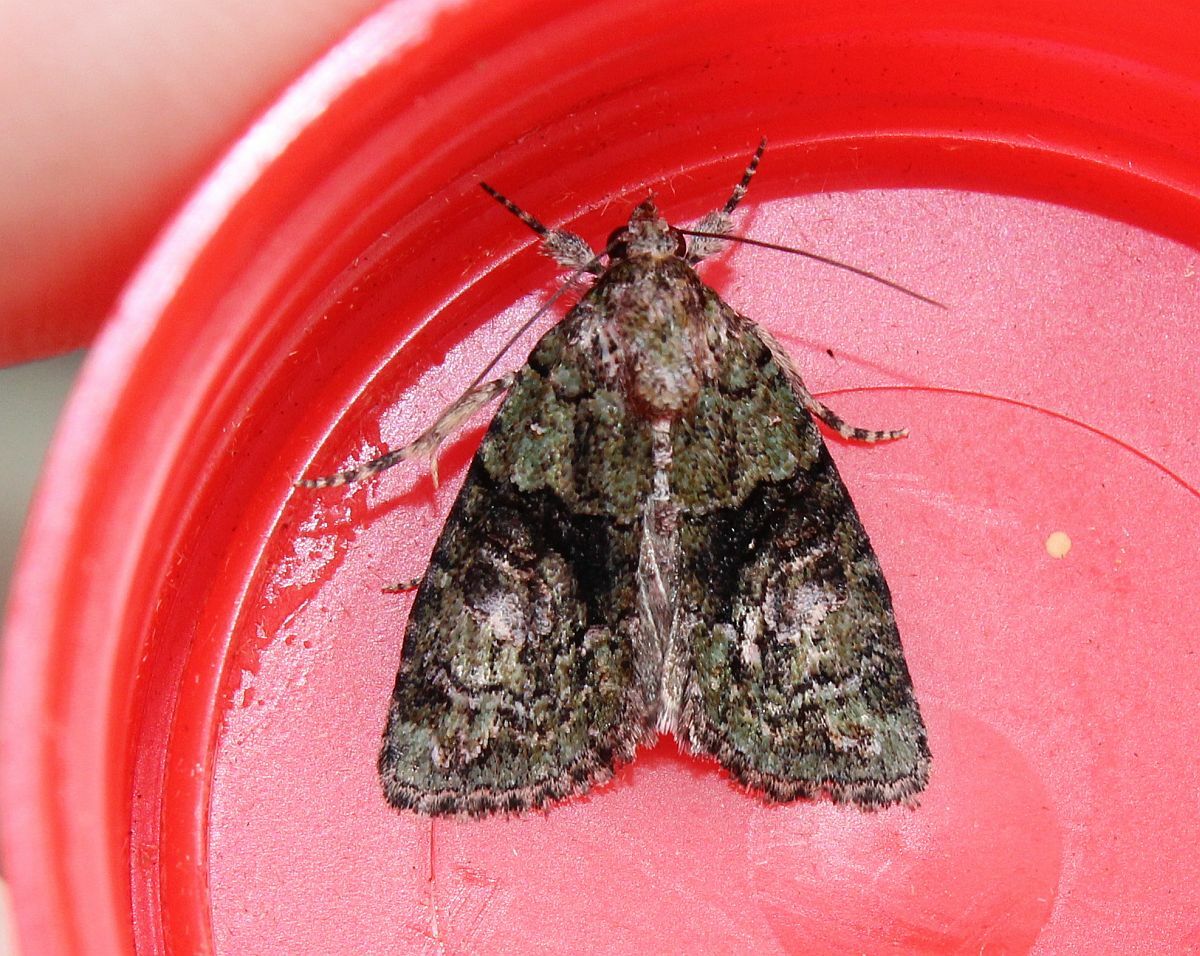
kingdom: Animalia
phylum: Arthropoda
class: Insecta
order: Lepidoptera
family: Noctuidae
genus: Cryphia
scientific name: Cryphia algae
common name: Tree-lichen beauty
